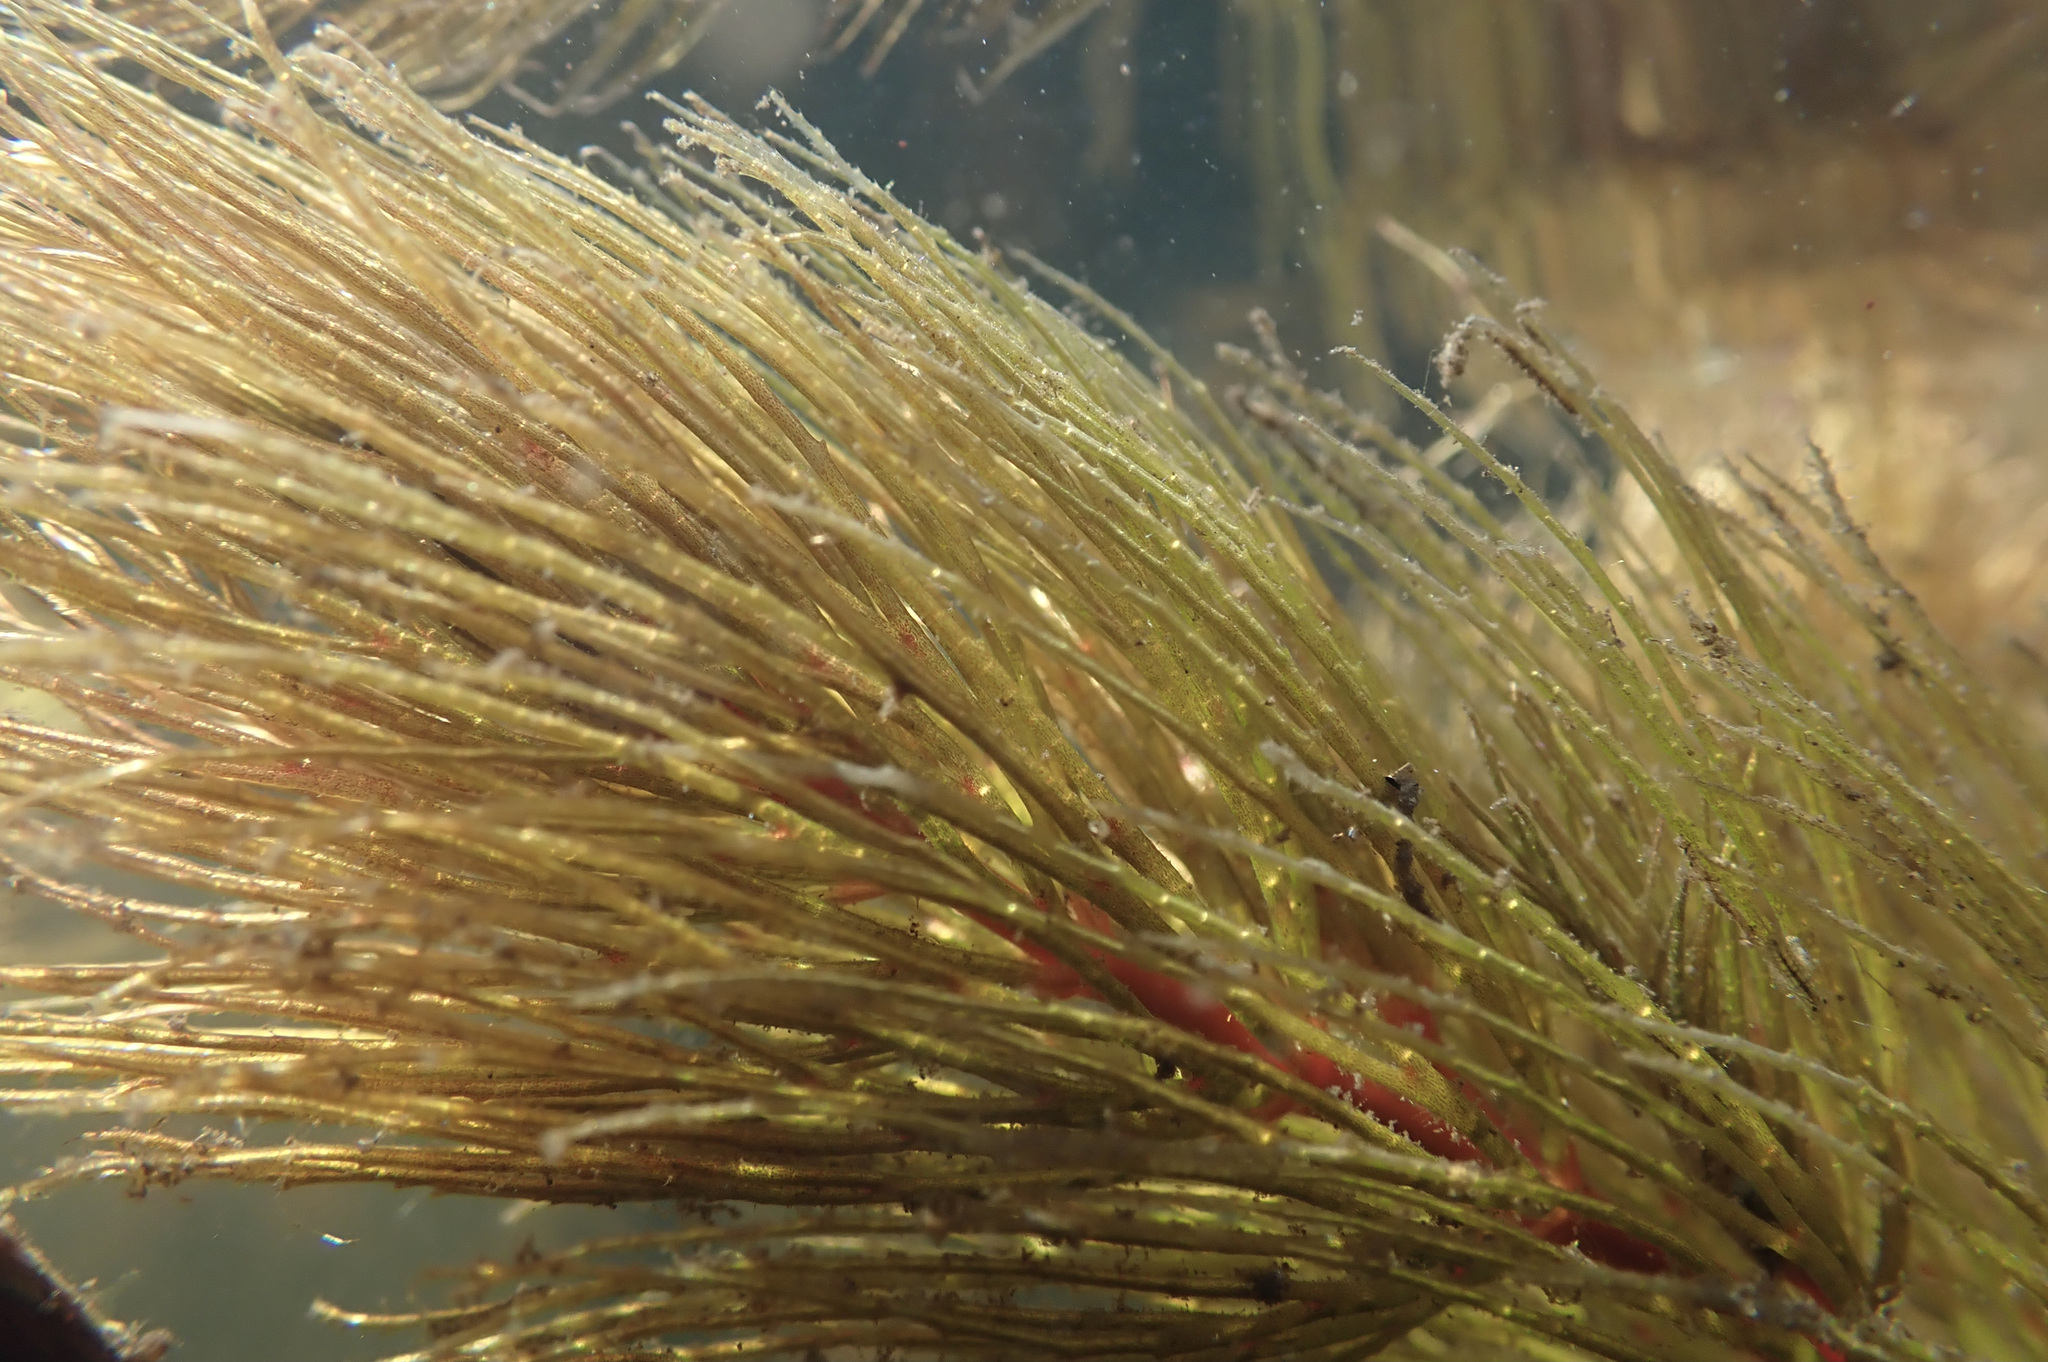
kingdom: Plantae
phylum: Tracheophyta
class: Magnoliopsida
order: Ceratophyllales
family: Ceratophyllaceae
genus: Ceratophyllum
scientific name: Ceratophyllum demersum
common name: Rigid hornwort
